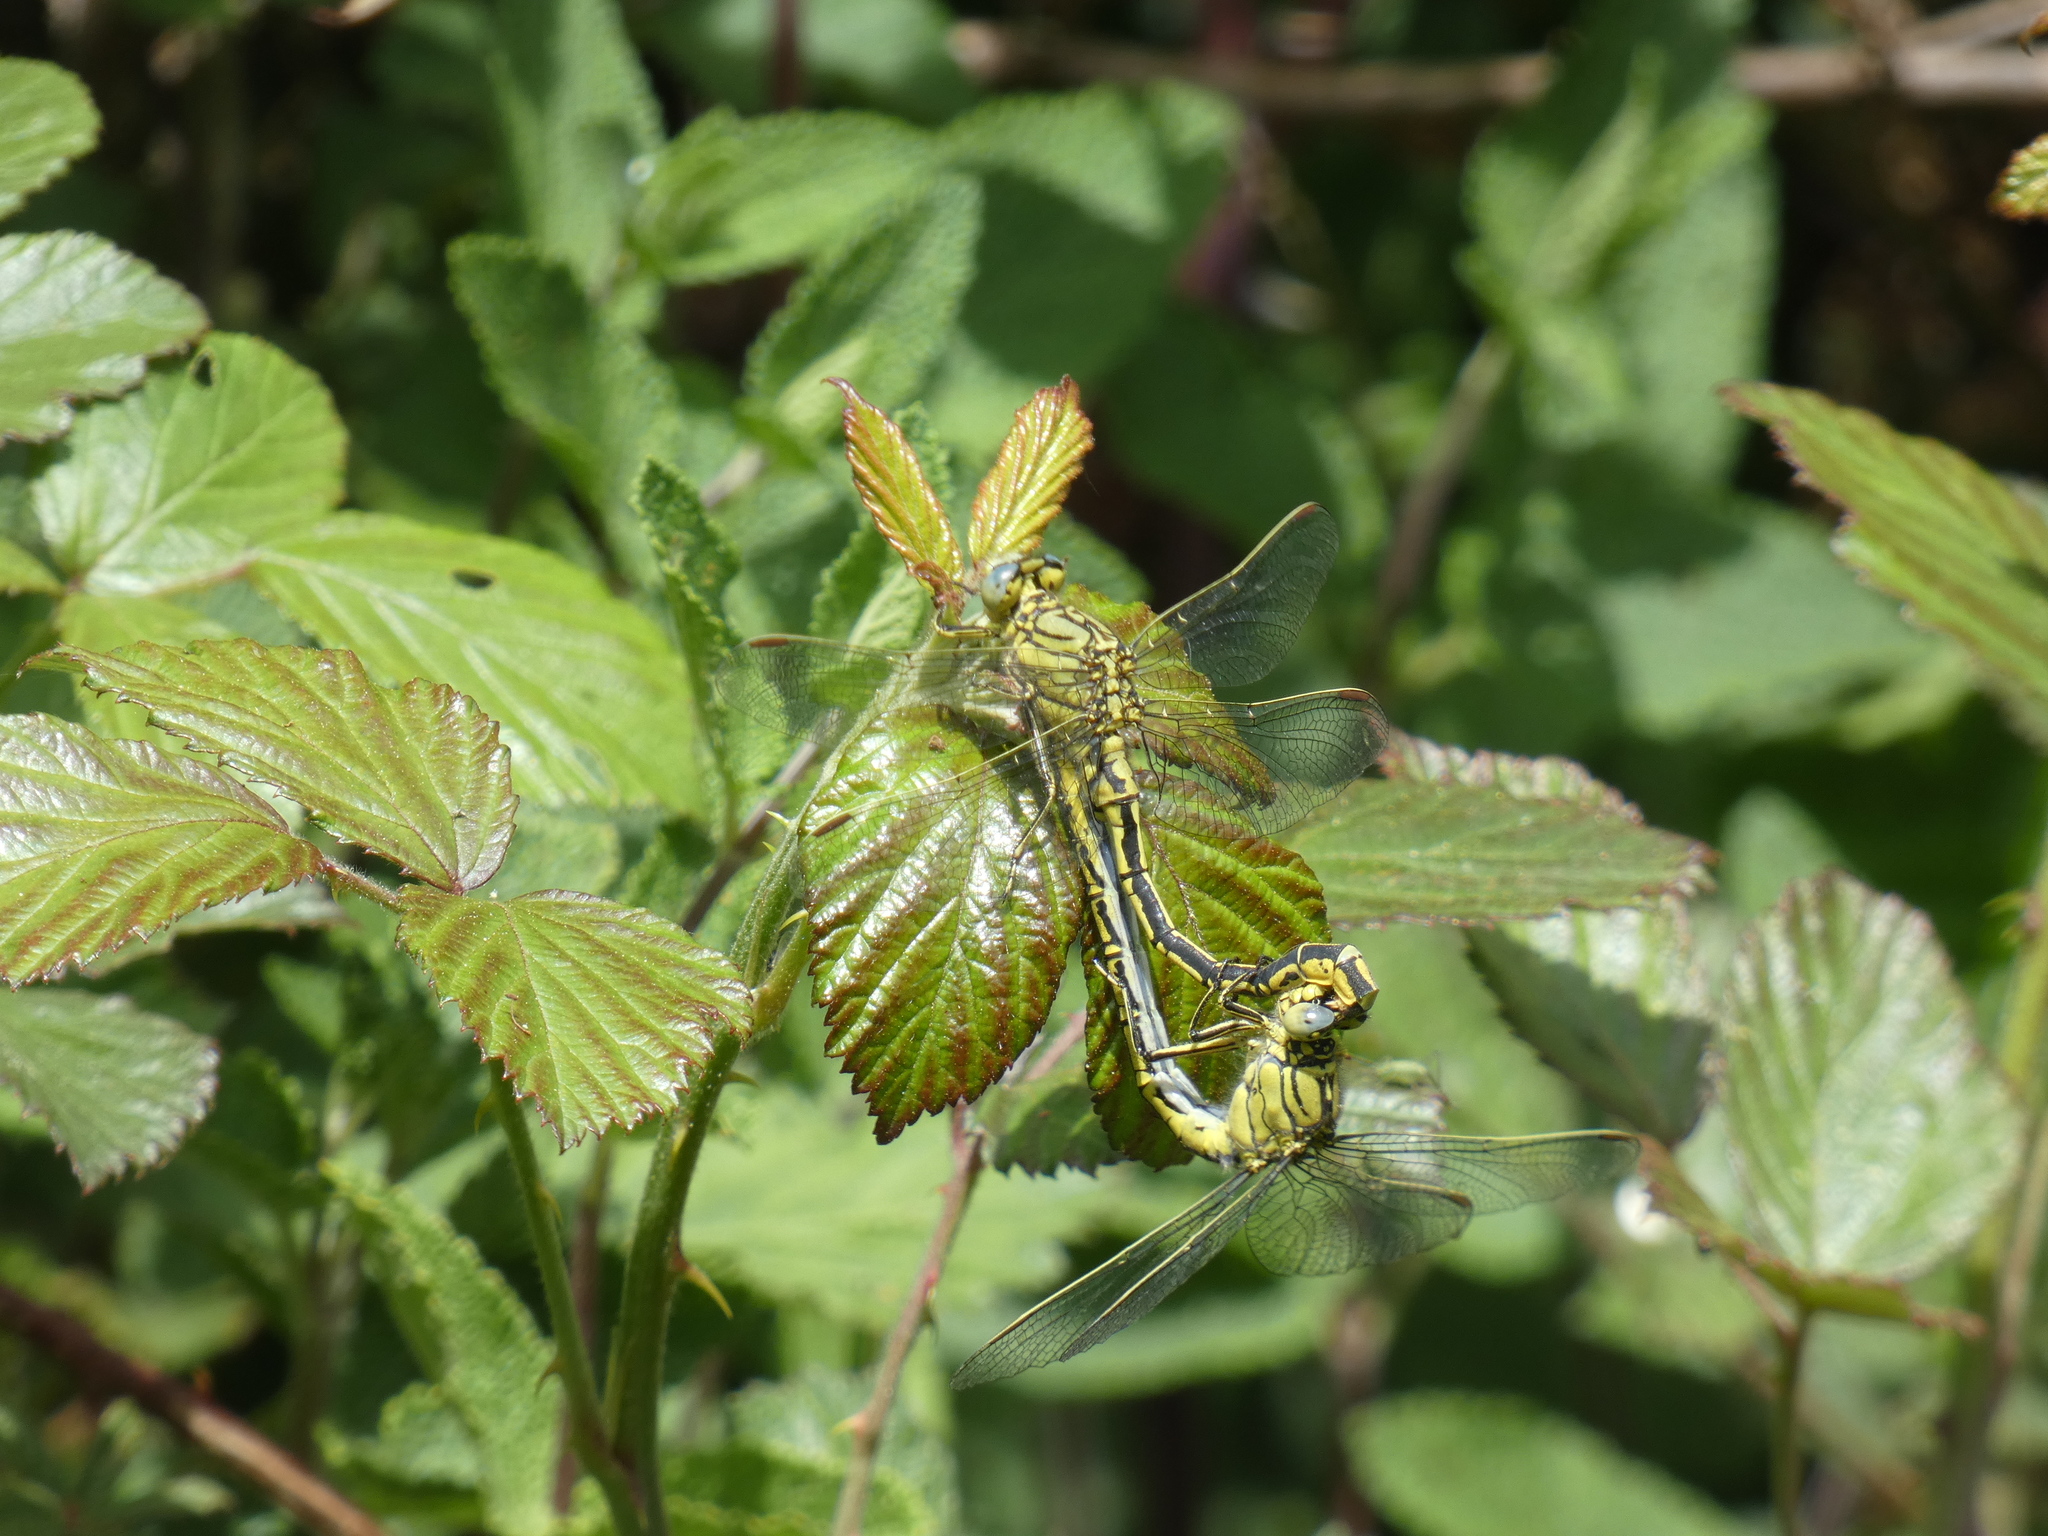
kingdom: Animalia
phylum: Arthropoda
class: Insecta
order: Odonata
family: Gomphidae
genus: Gomphus
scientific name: Gomphus pulchellus
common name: Western clubtail
